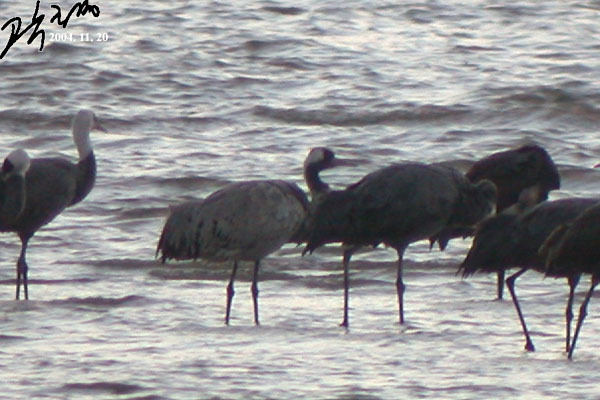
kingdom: Animalia
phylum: Chordata
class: Aves
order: Gruiformes
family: Gruidae
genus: Grus
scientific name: Grus grus
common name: Common crane
